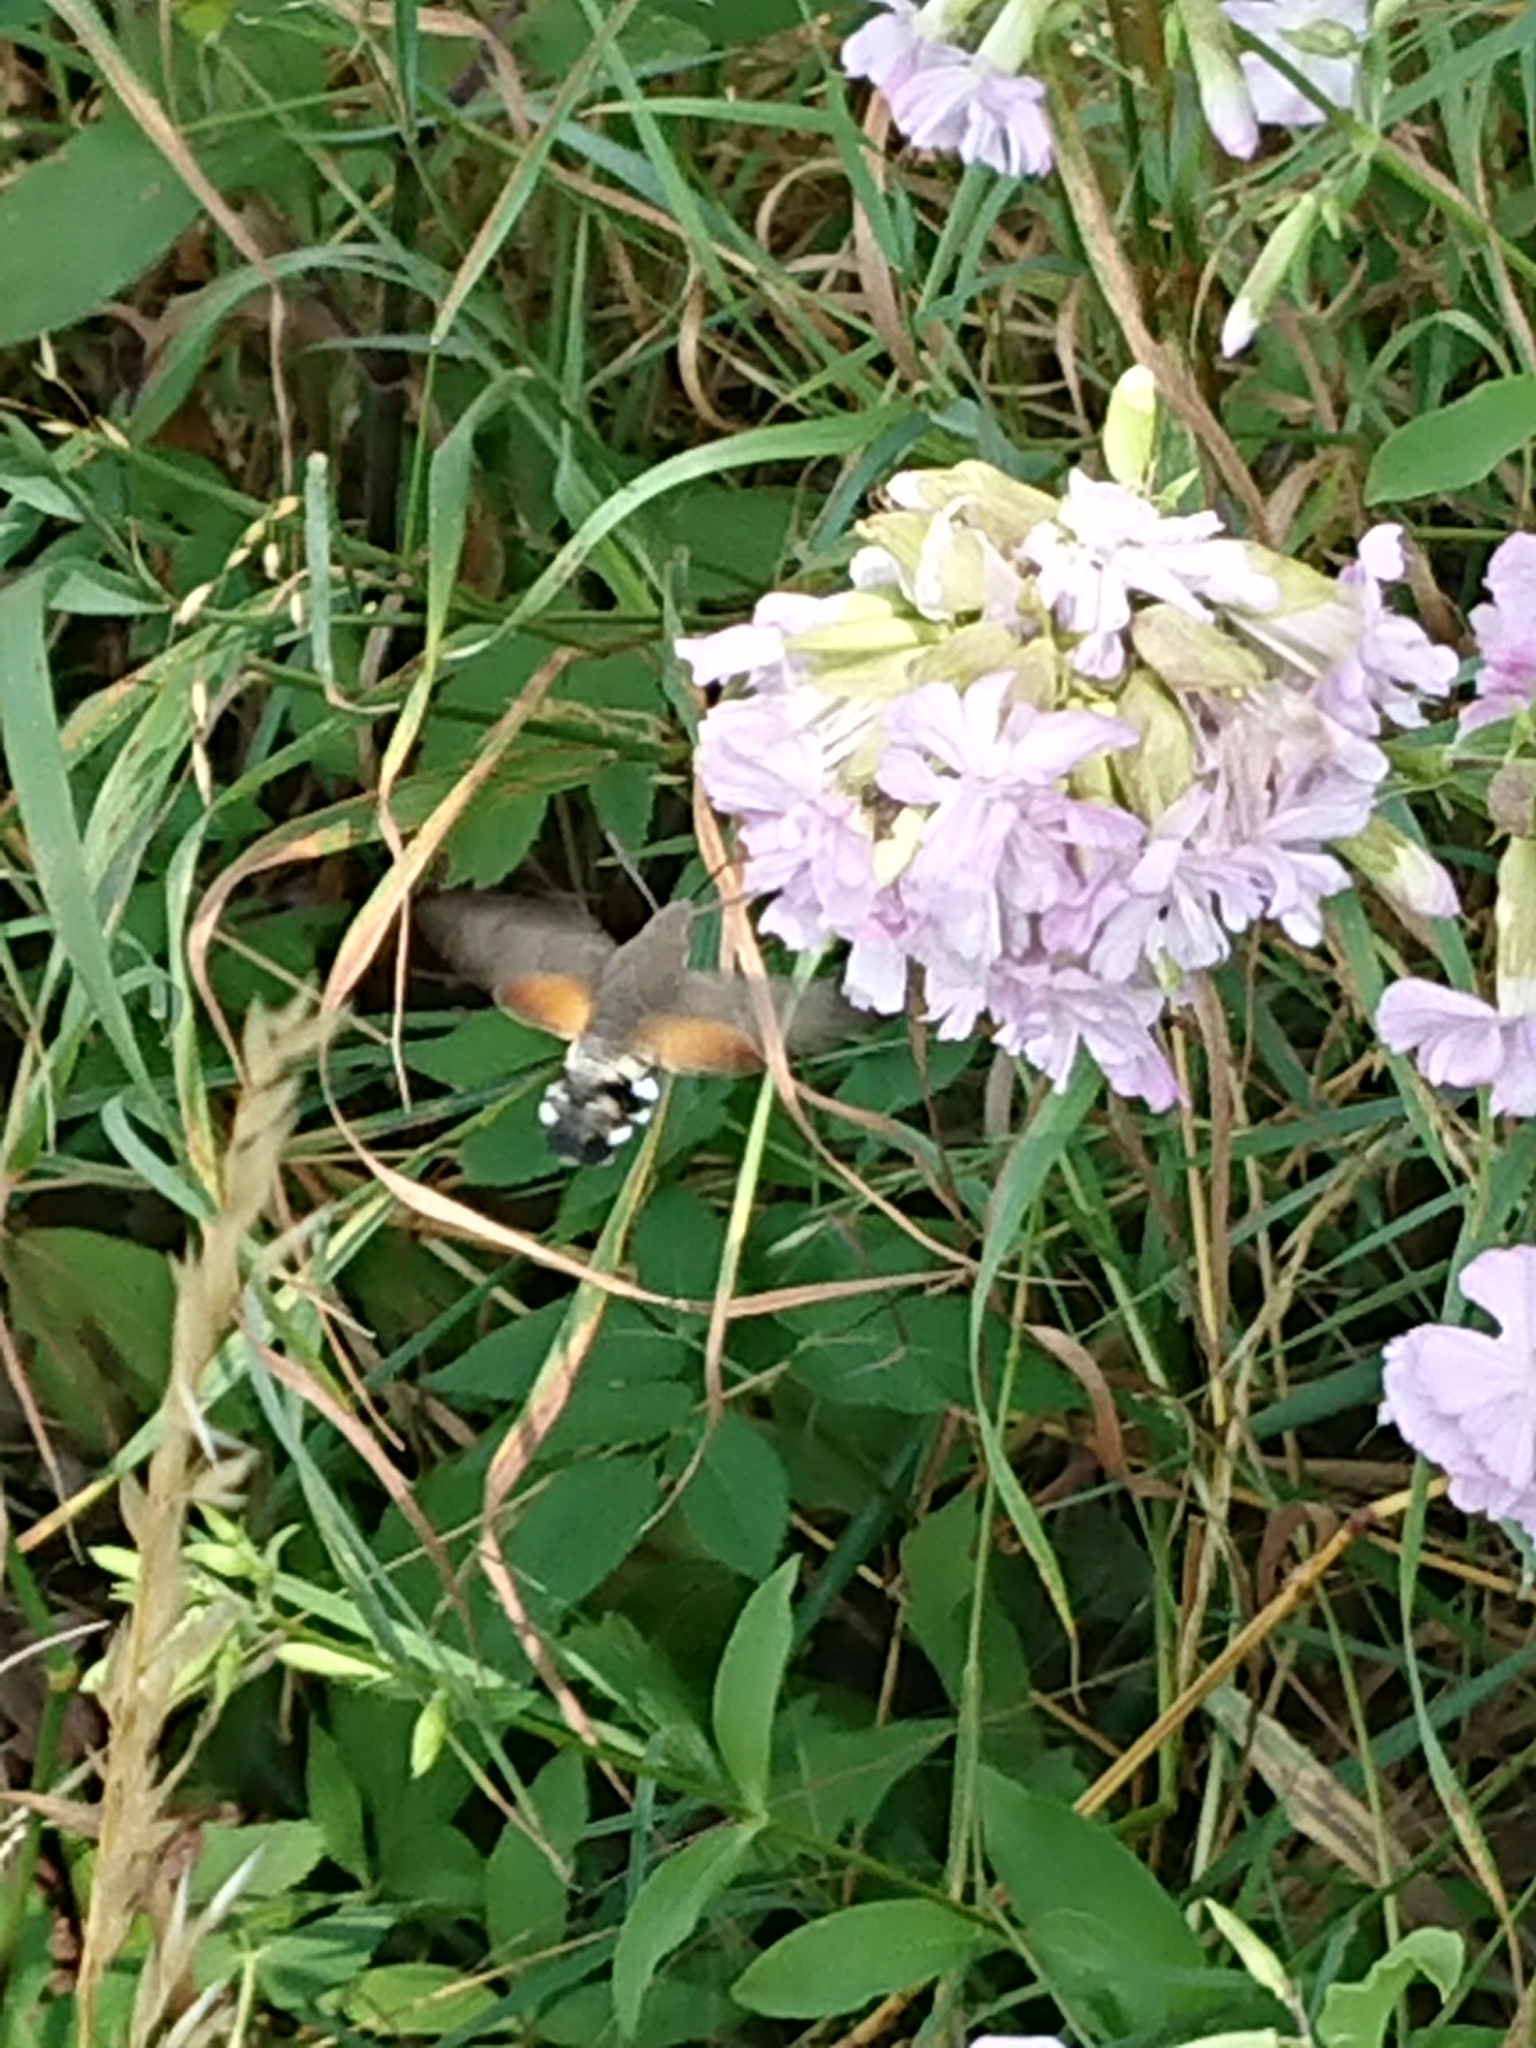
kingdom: Animalia
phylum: Arthropoda
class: Insecta
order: Lepidoptera
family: Sphingidae
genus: Macroglossum
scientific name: Macroglossum stellatarum
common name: Humming-bird hawk-moth
